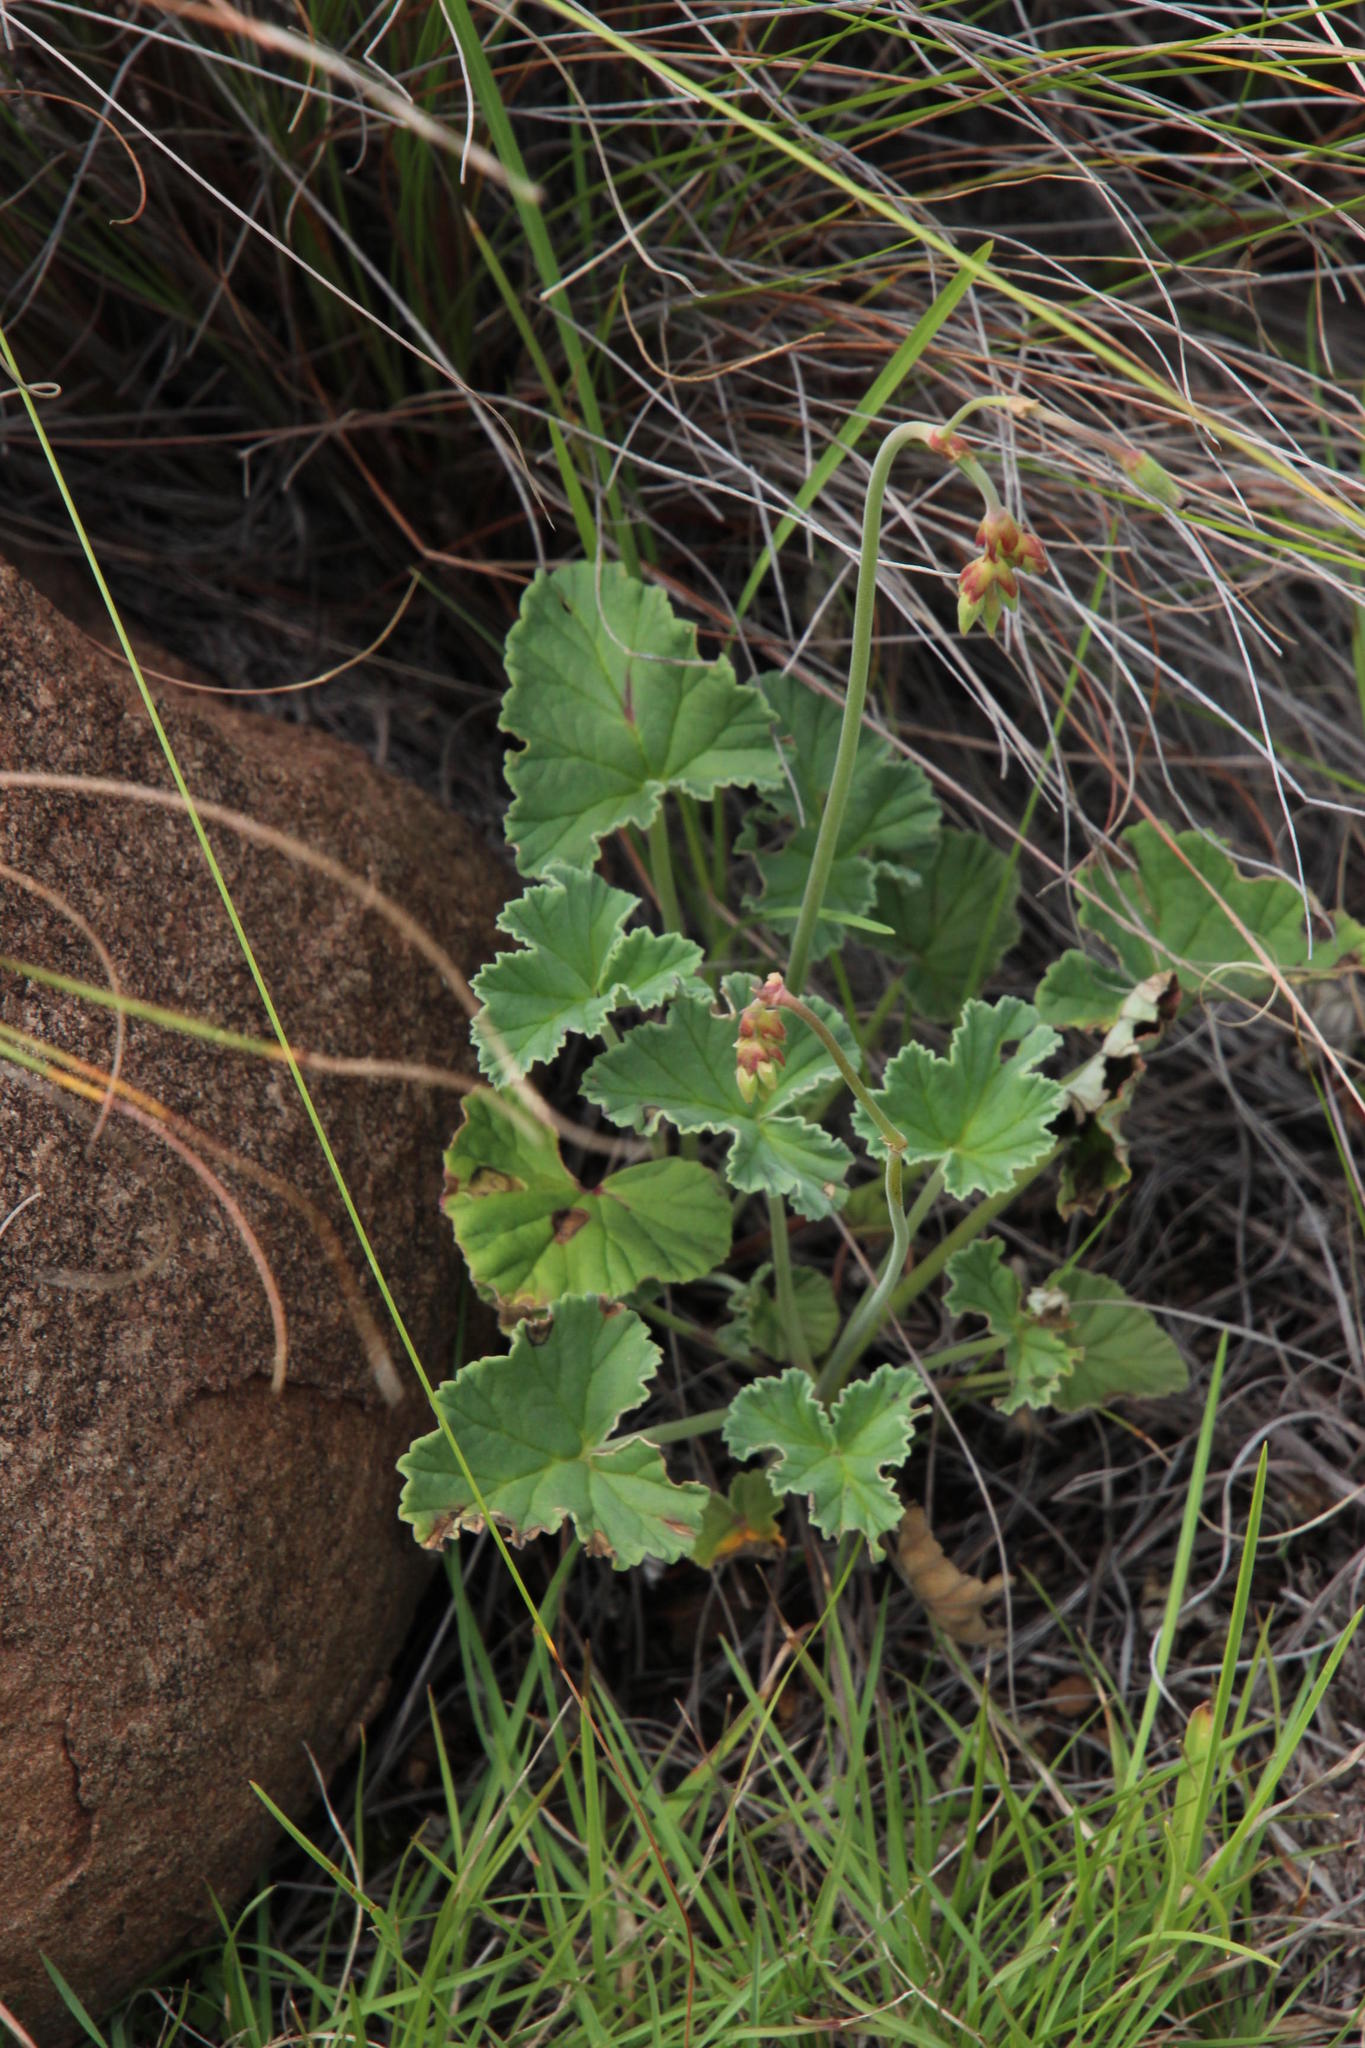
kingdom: Plantae
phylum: Tracheophyta
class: Magnoliopsida
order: Geraniales
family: Geraniaceae
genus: Pelargonium
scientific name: Pelargonium sidoides
